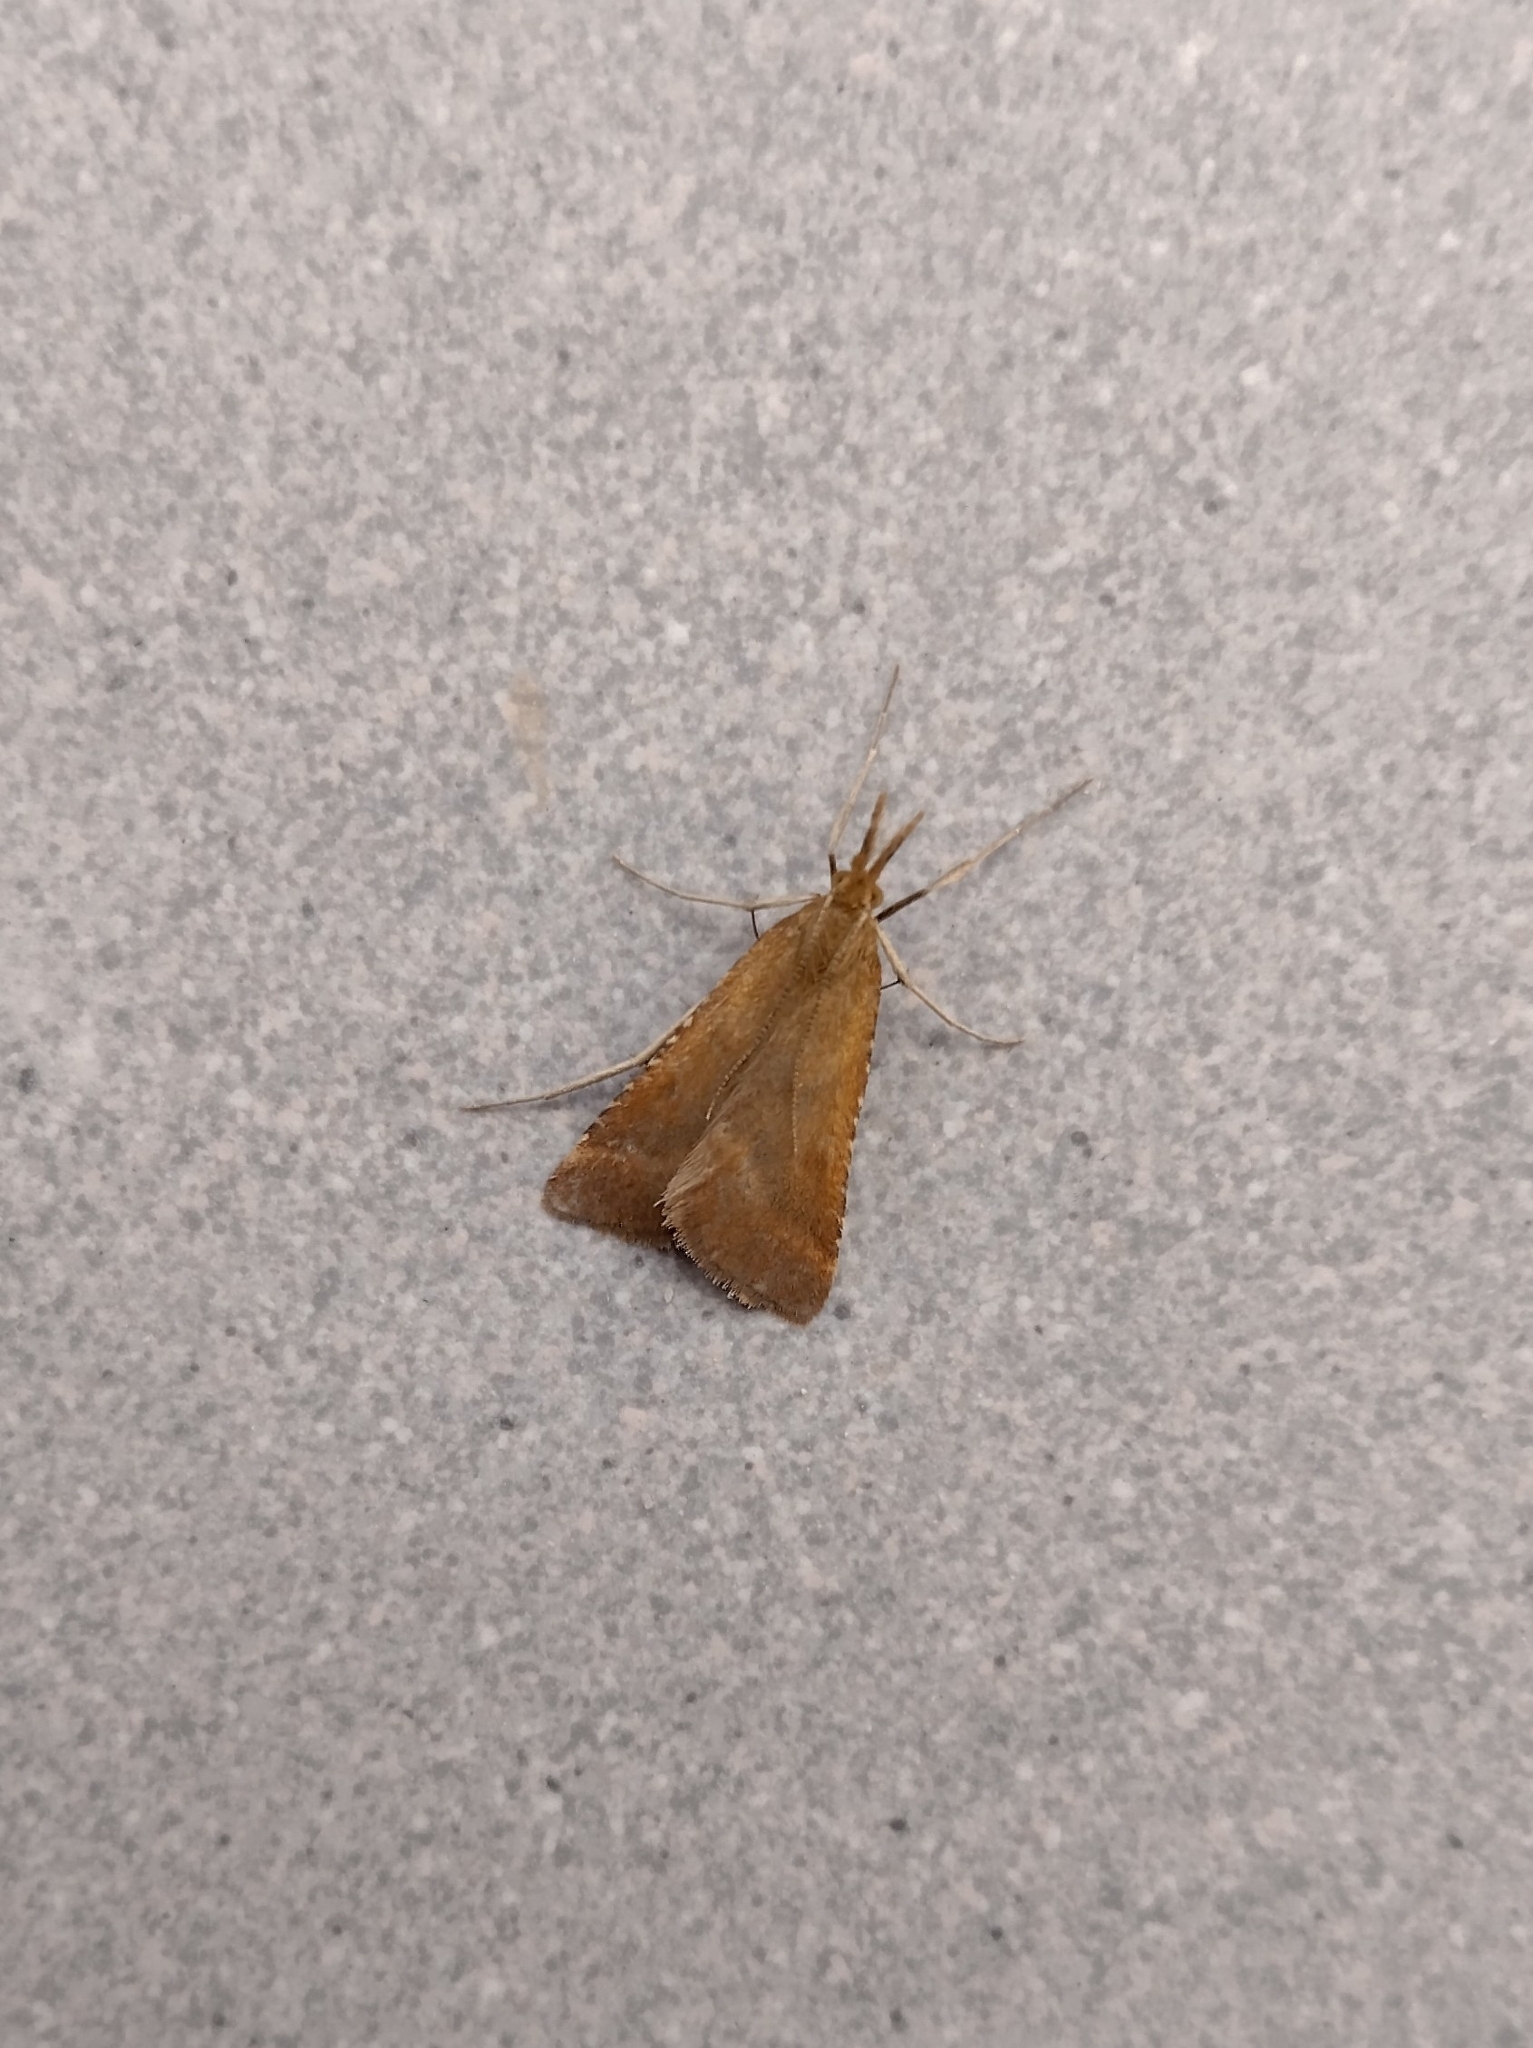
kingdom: Animalia
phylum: Arthropoda
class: Insecta
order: Lepidoptera
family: Pyralidae
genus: Synaphe
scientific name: Synaphe punctalis
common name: Long-legged tabby
